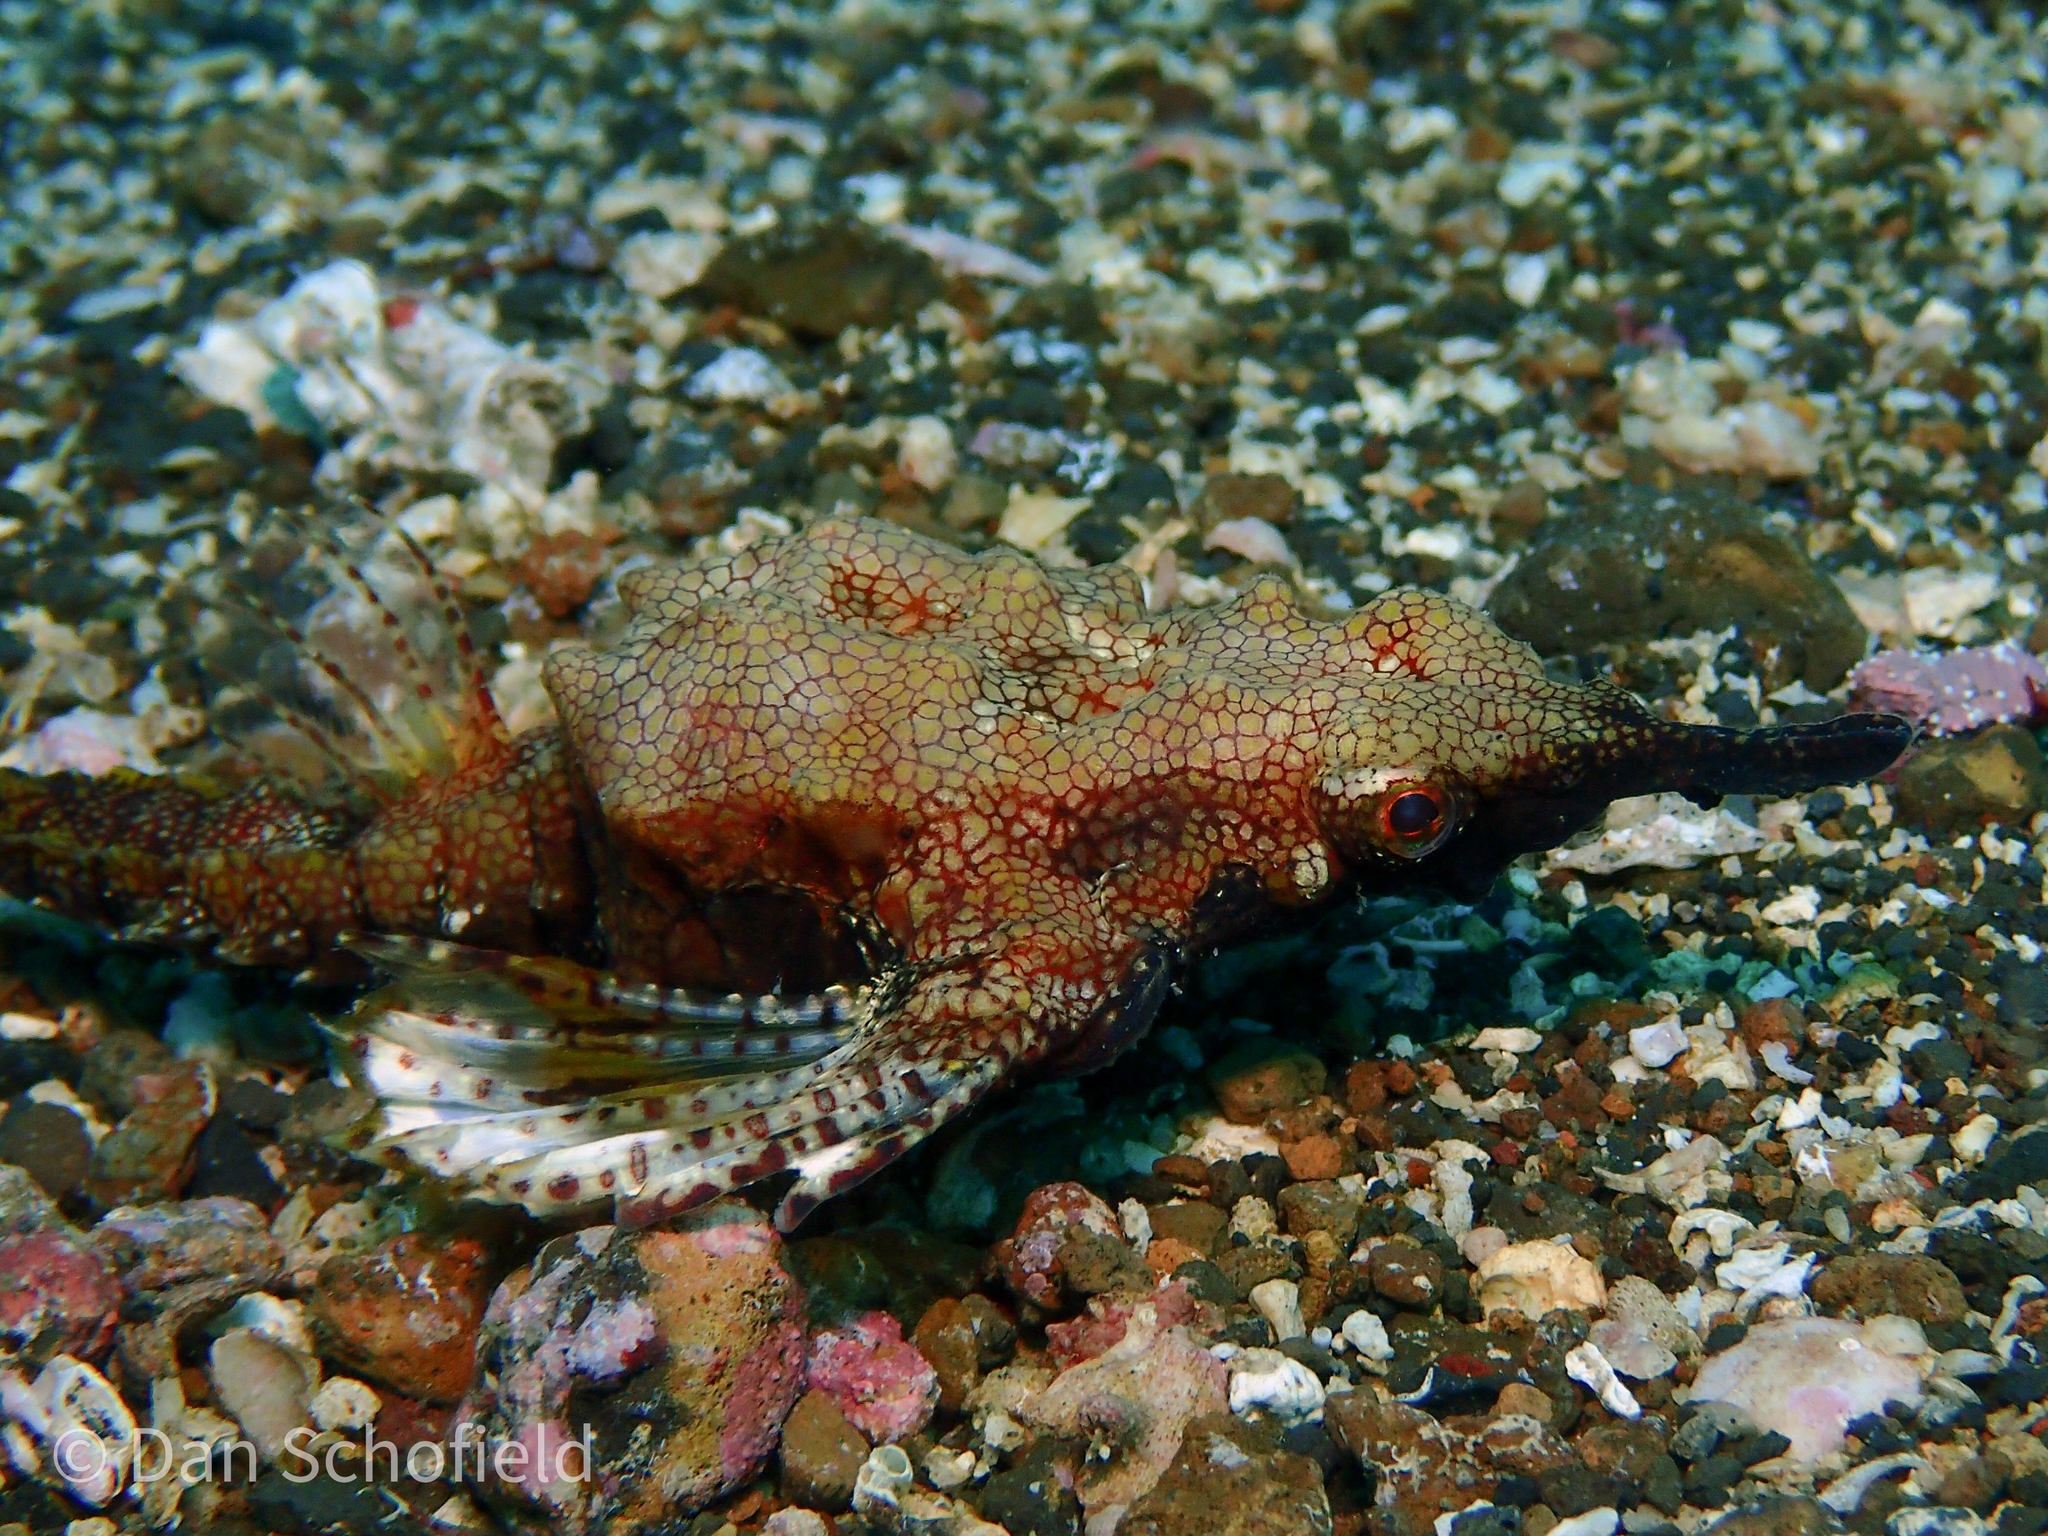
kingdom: Animalia
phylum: Chordata
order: Gasterosteiformes
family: Pegasidae
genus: Eurypegasus
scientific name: Eurypegasus draconis
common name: Short dragonfish
